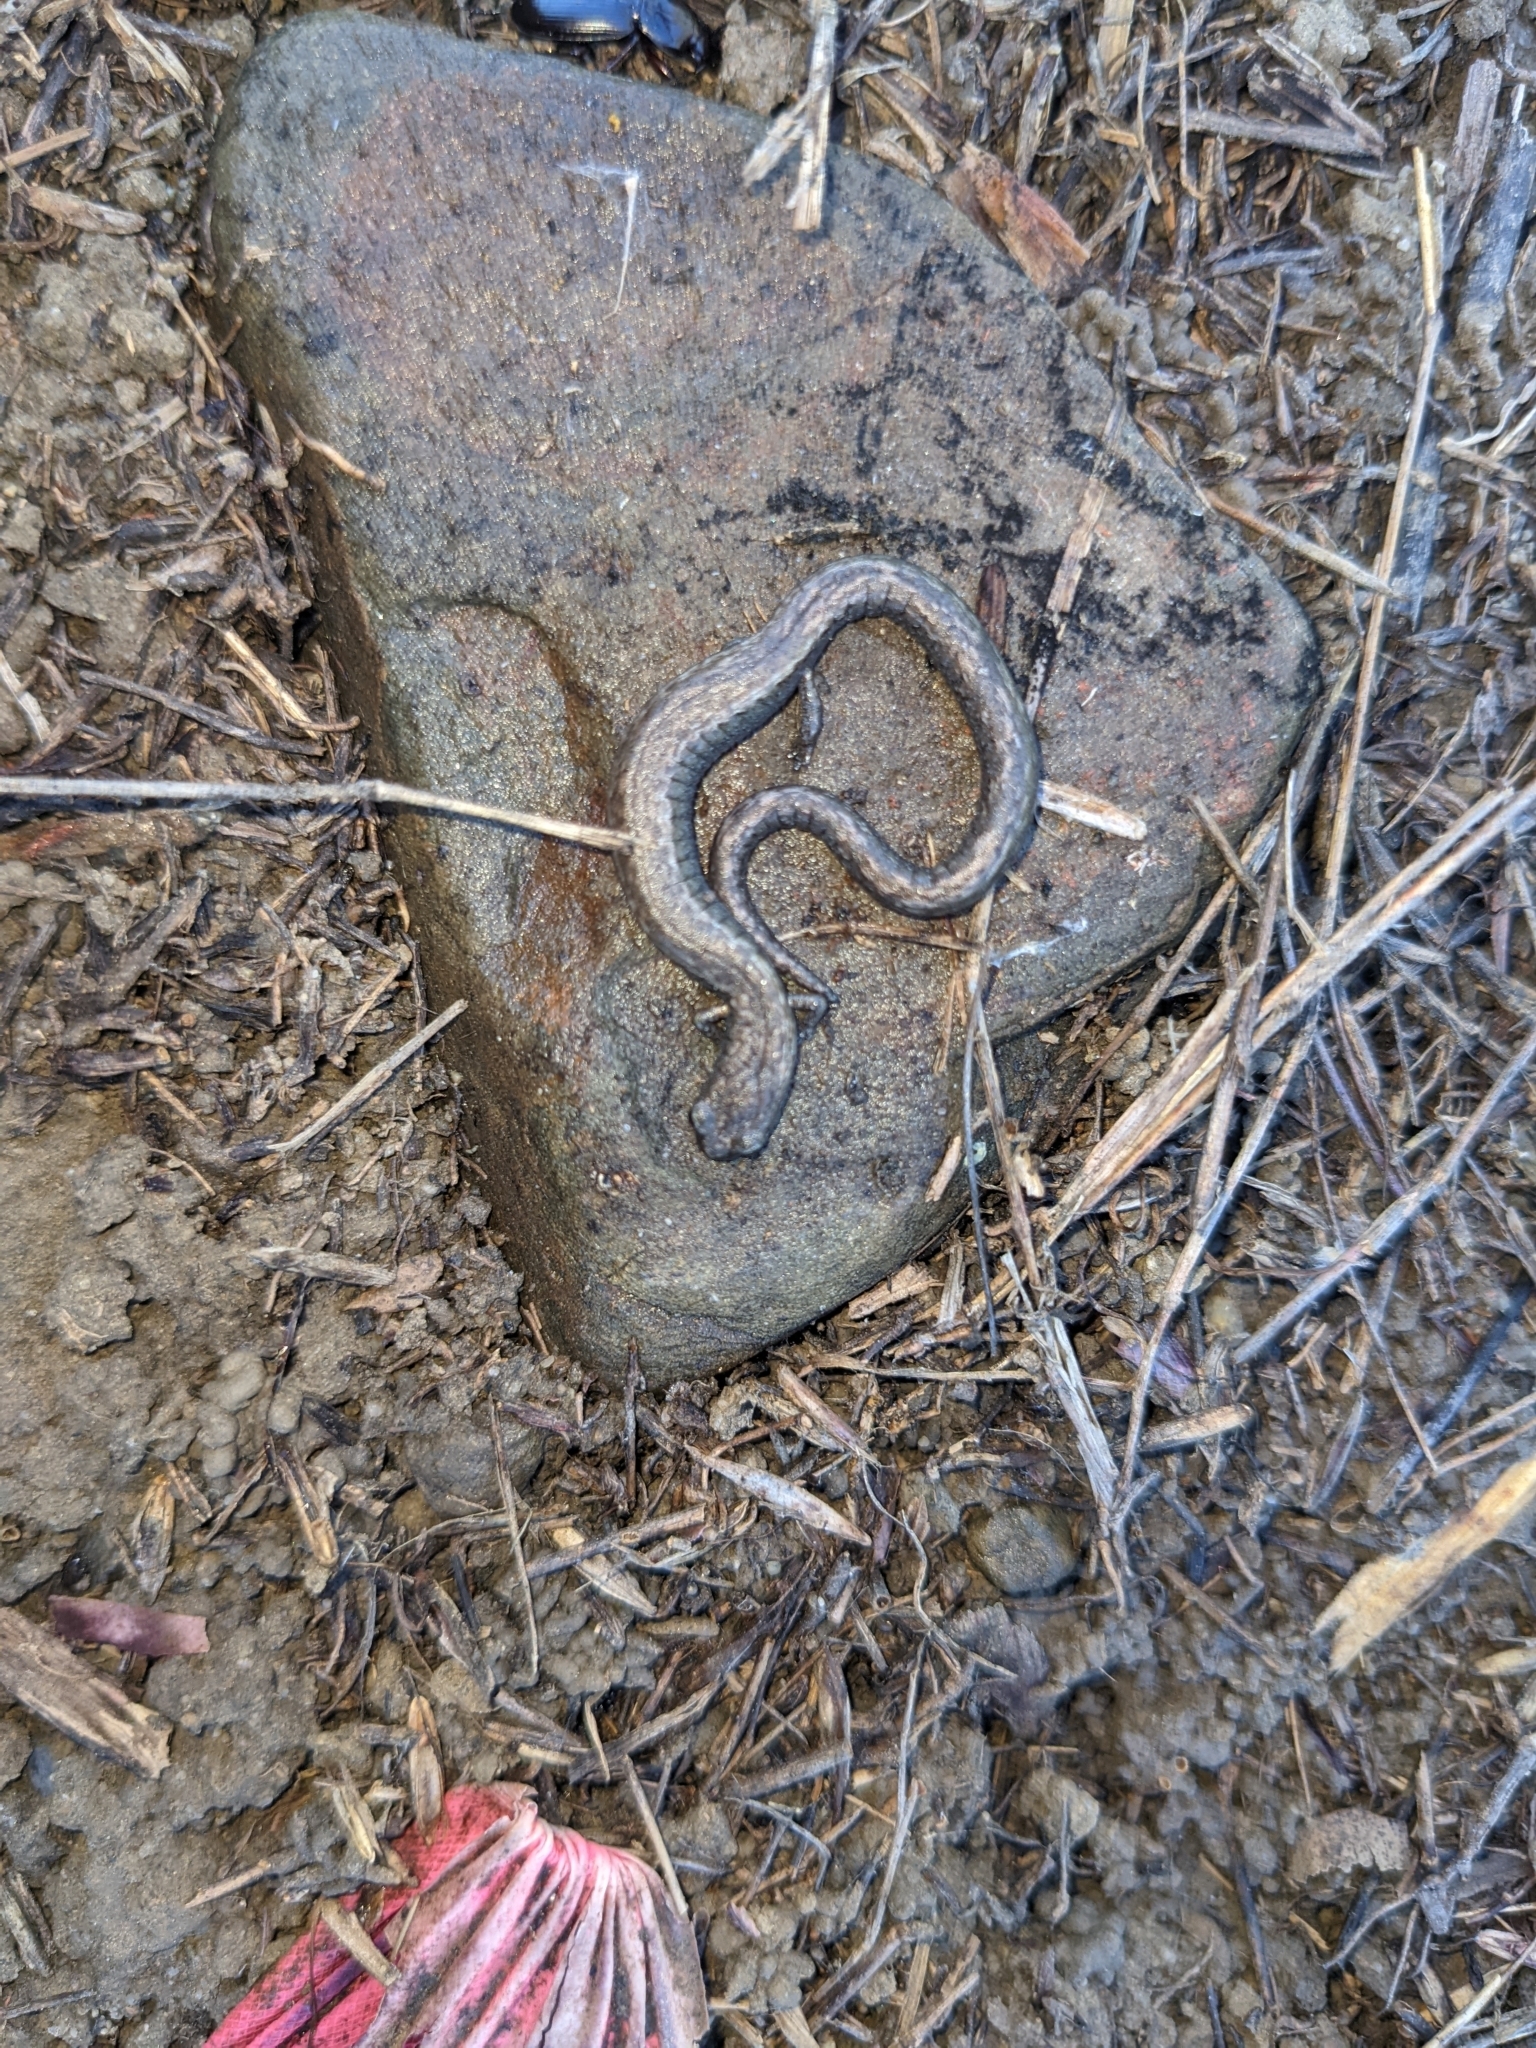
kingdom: Animalia
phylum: Chordata
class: Amphibia
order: Caudata
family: Plethodontidae
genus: Batrachoseps
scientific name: Batrachoseps nigriventris
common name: Black-bellied slender salamander
